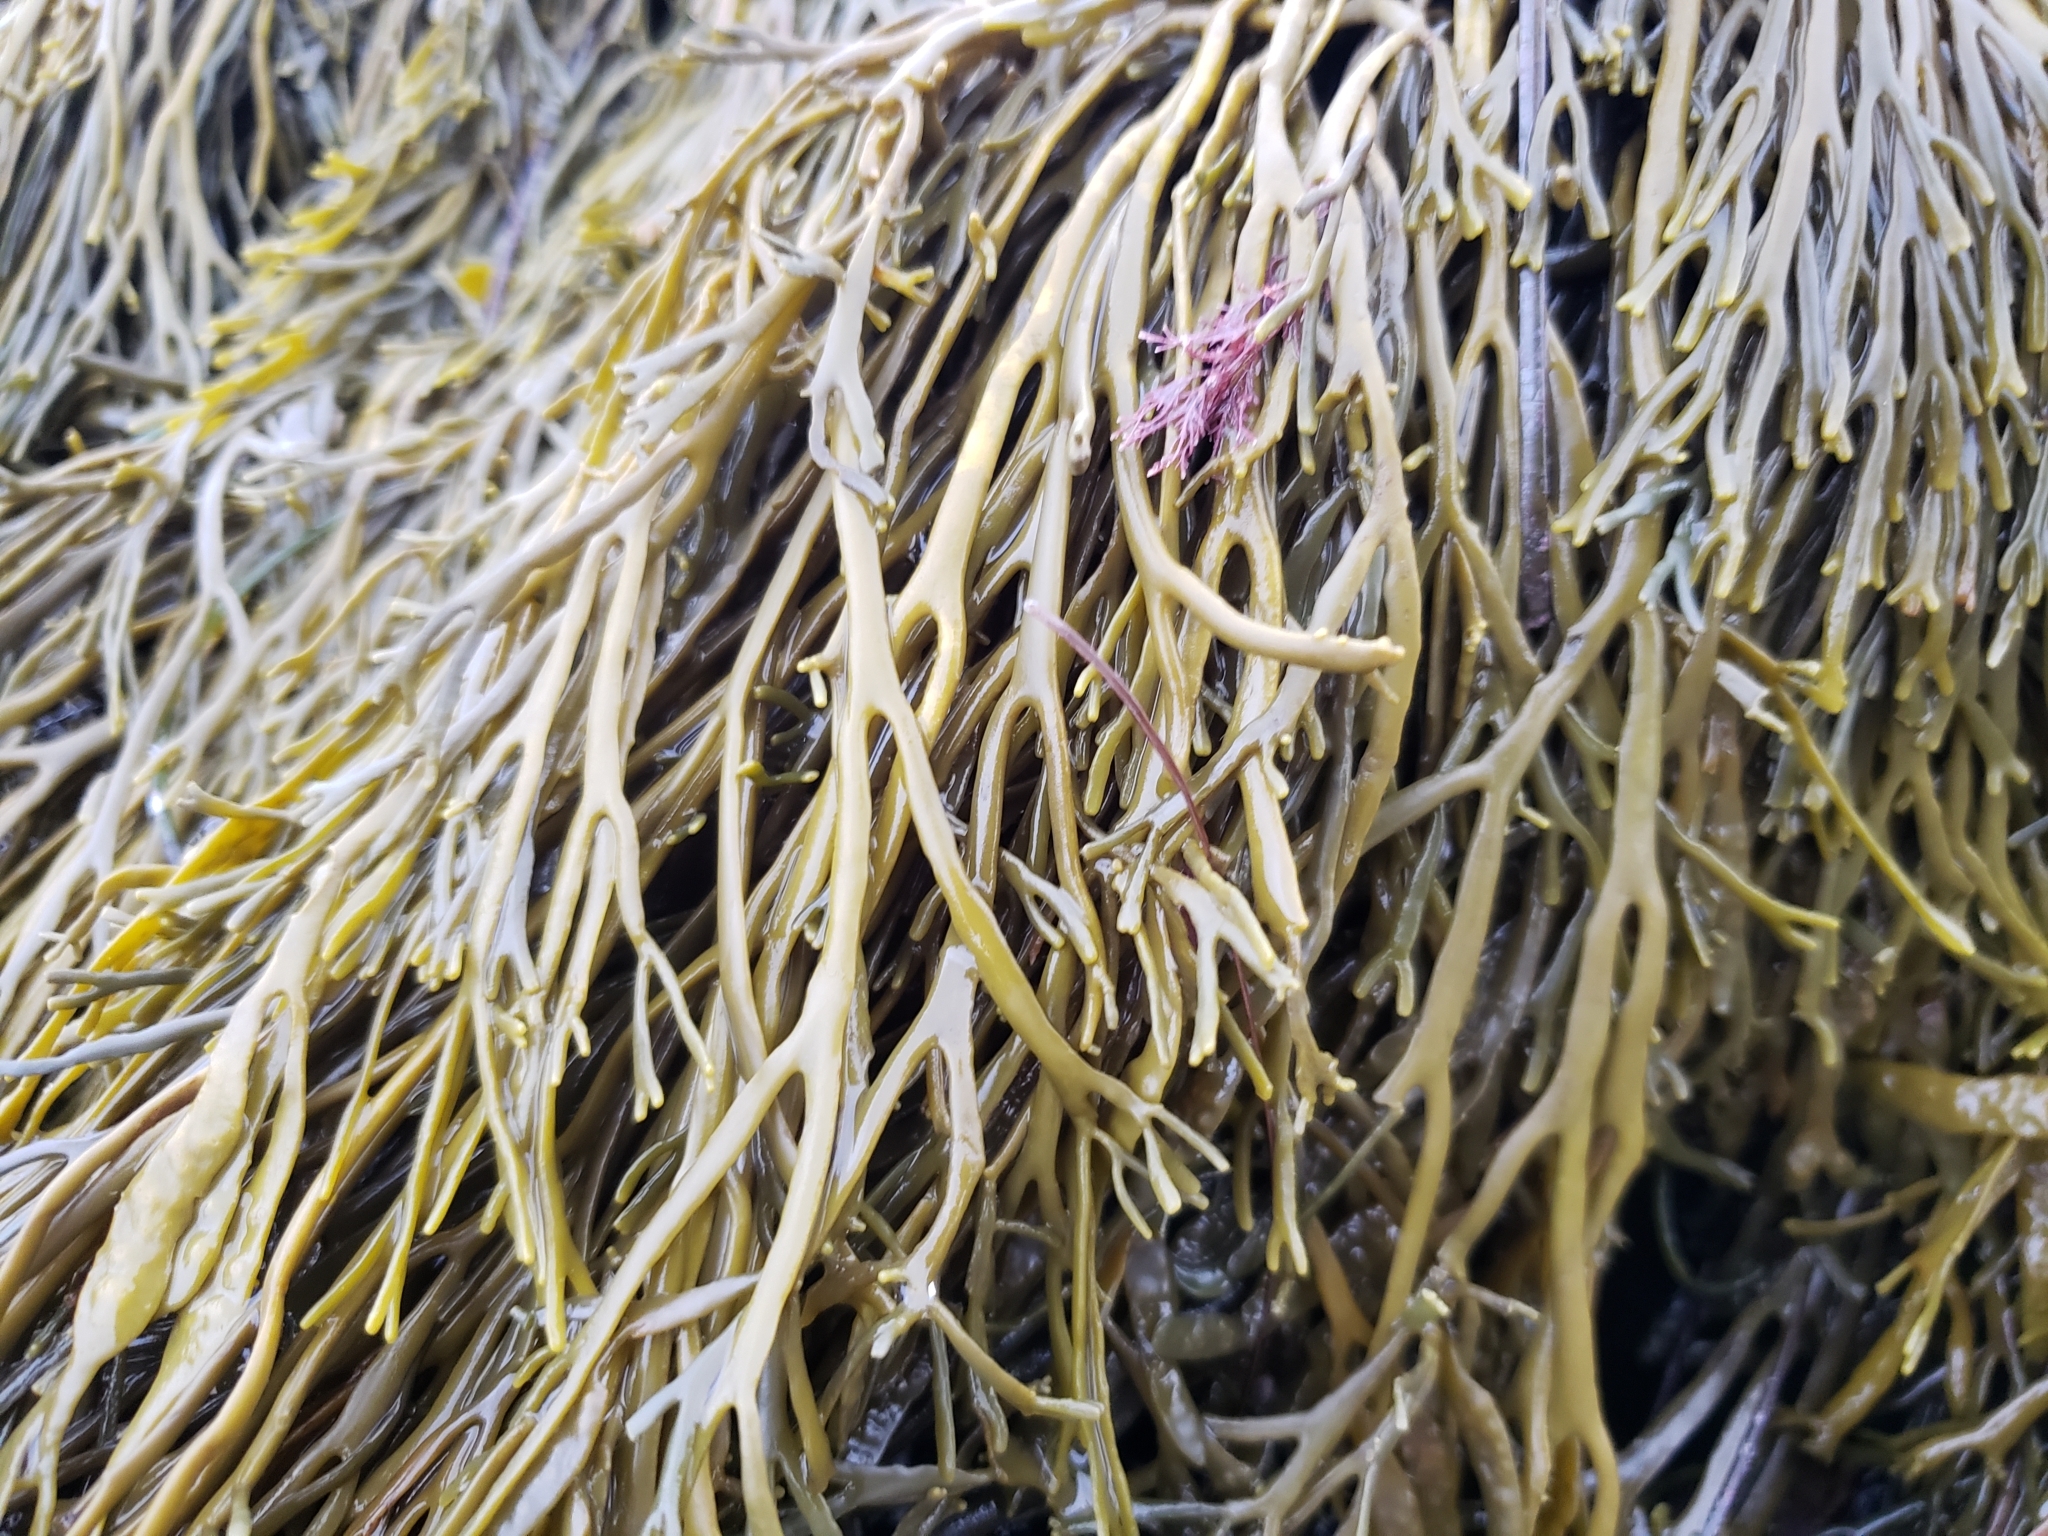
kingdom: Chromista
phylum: Ochrophyta
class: Phaeophyceae
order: Fucales
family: Fucaceae
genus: Silvetia
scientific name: Silvetia
